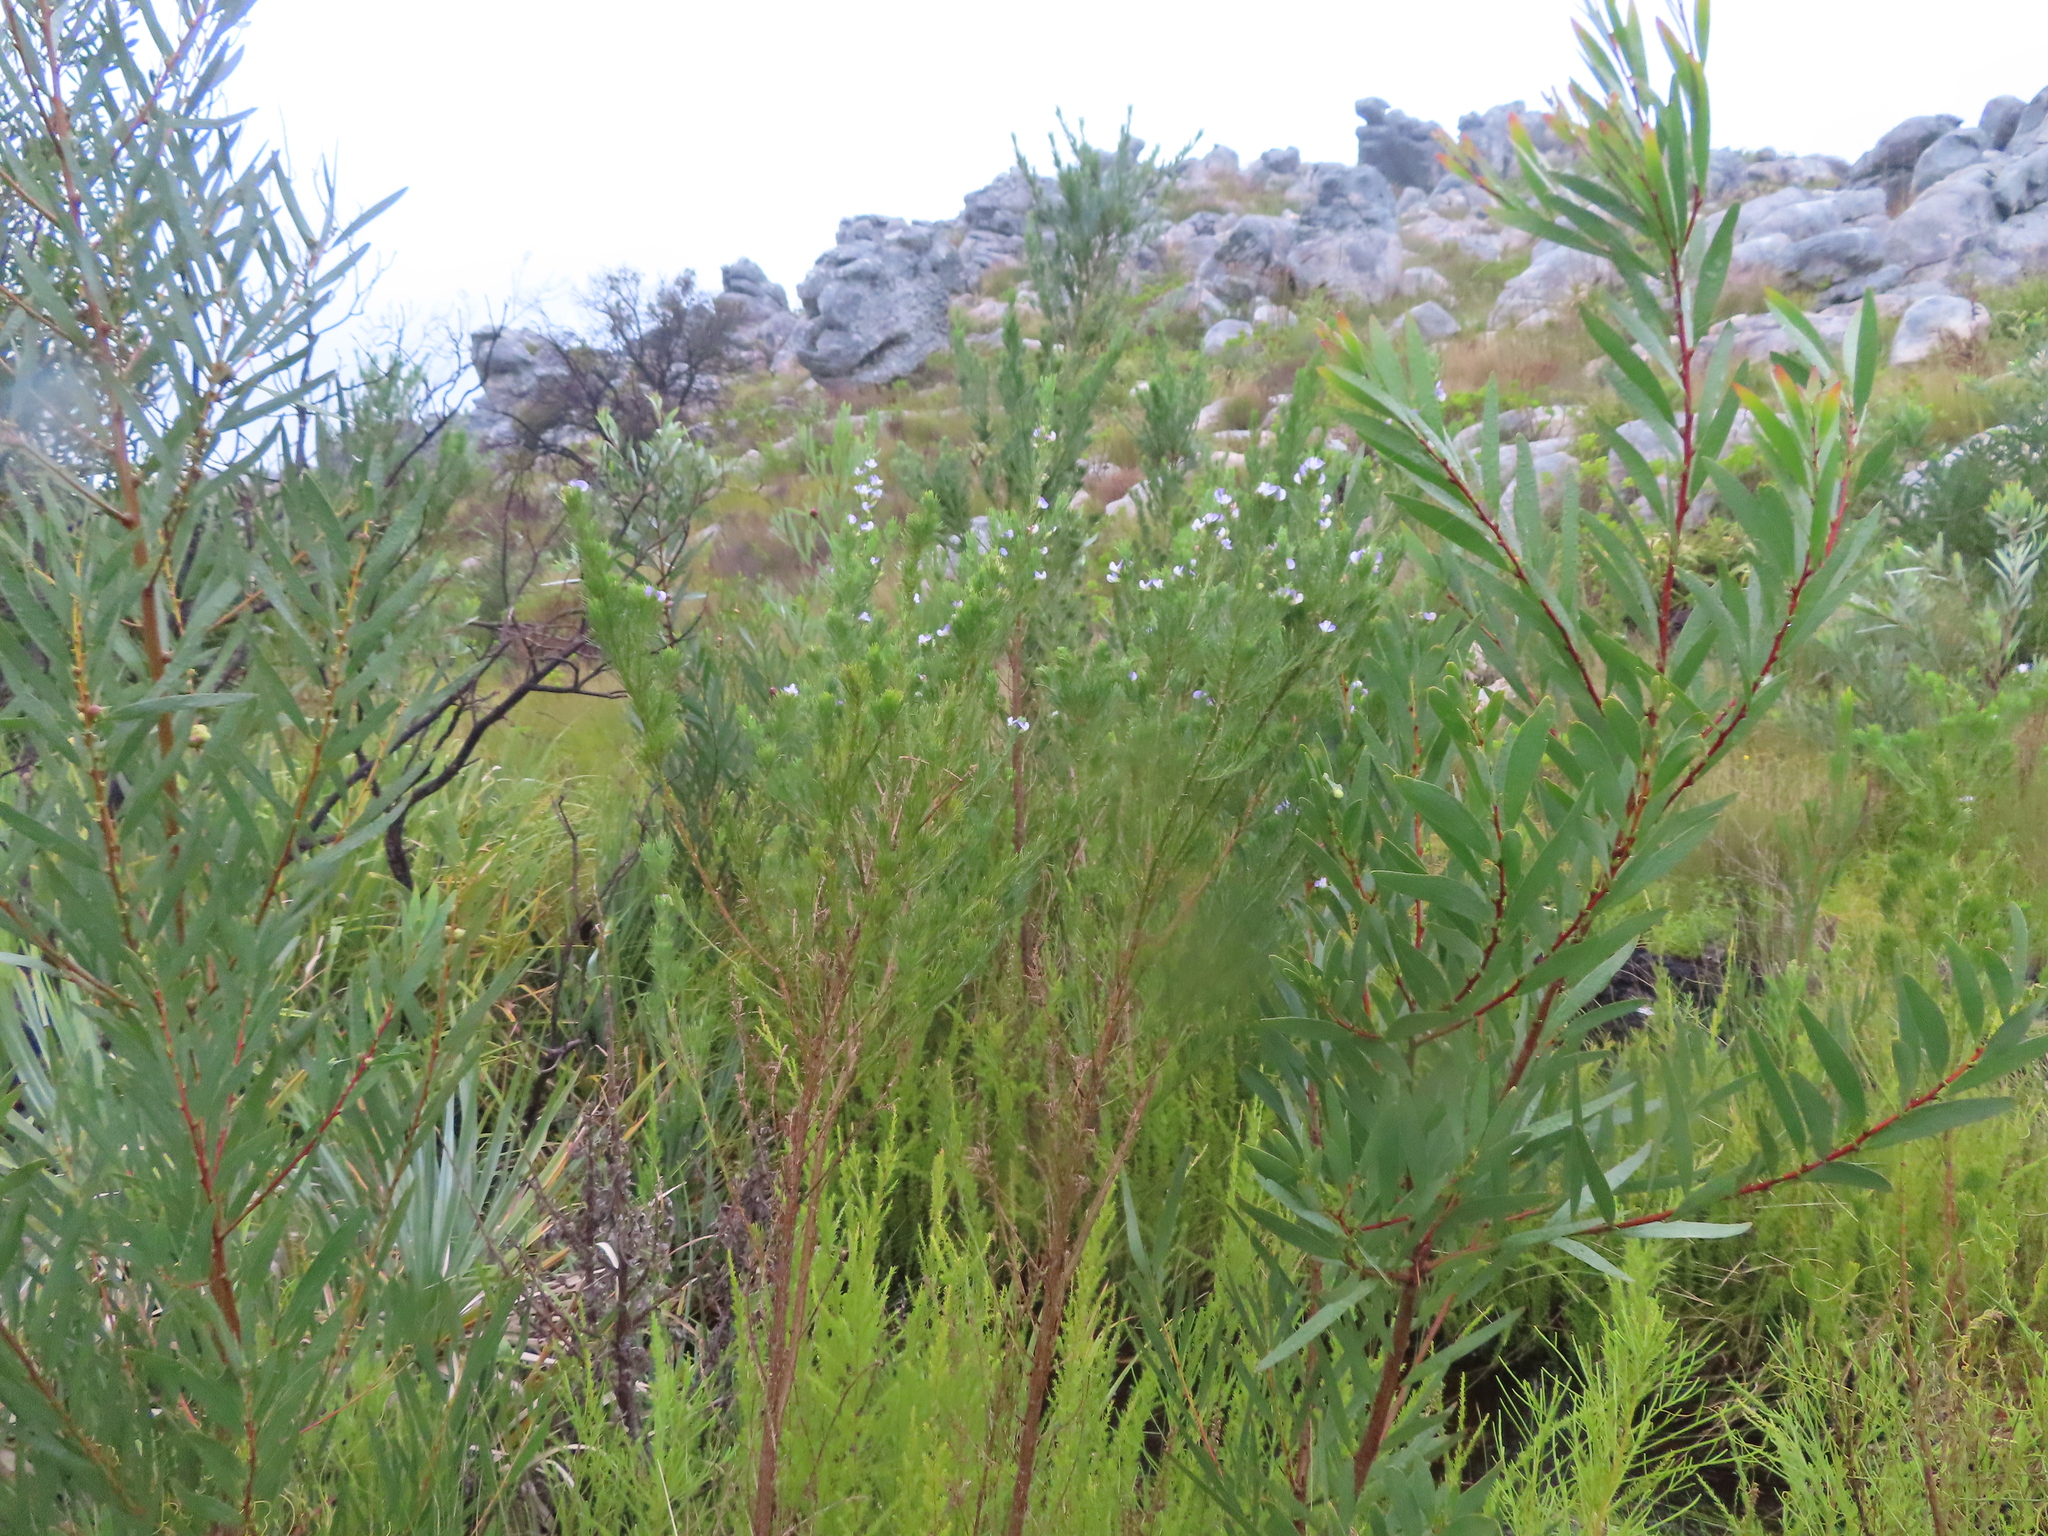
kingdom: Plantae
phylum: Tracheophyta
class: Magnoliopsida
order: Fabales
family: Fabaceae
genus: Acacia
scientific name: Acacia longifolia
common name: Sydney golden wattle
